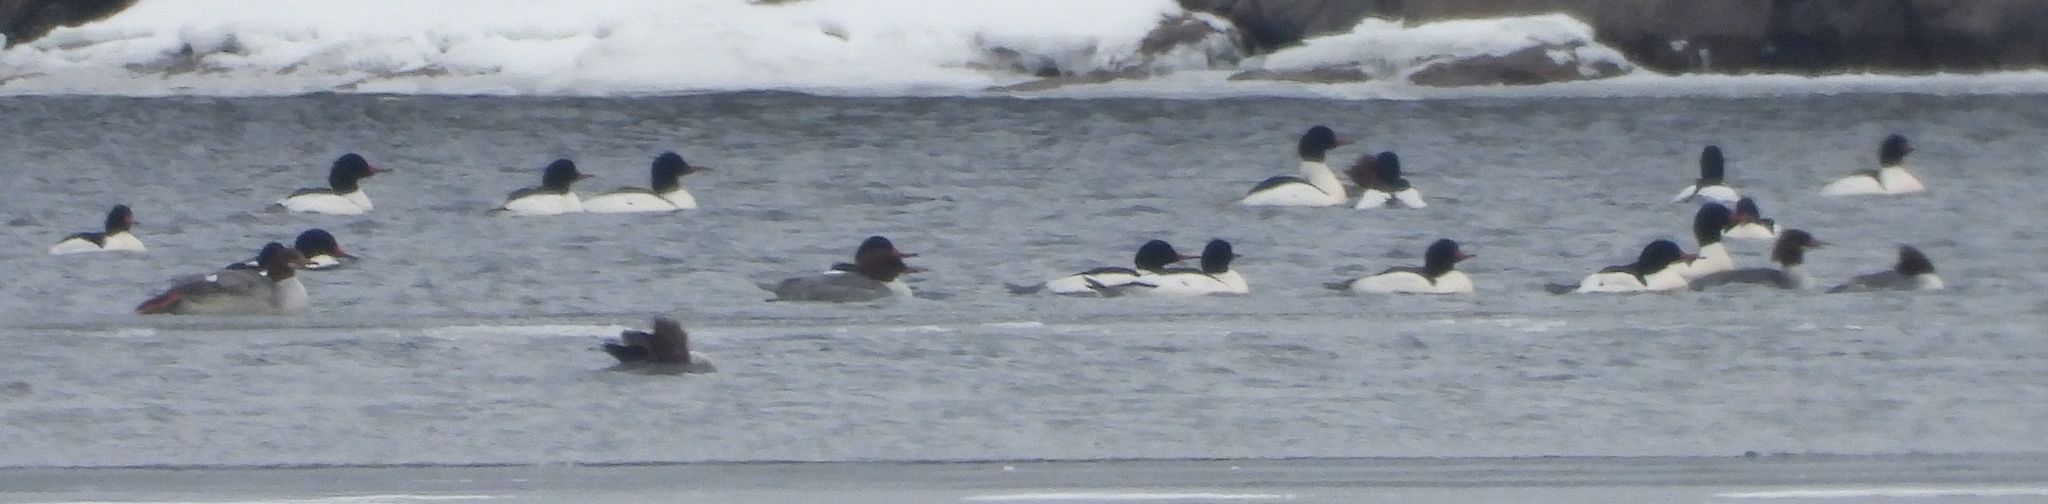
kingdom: Animalia
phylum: Chordata
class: Aves
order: Anseriformes
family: Anatidae
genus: Mergus
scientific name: Mergus merganser
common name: Common merganser
